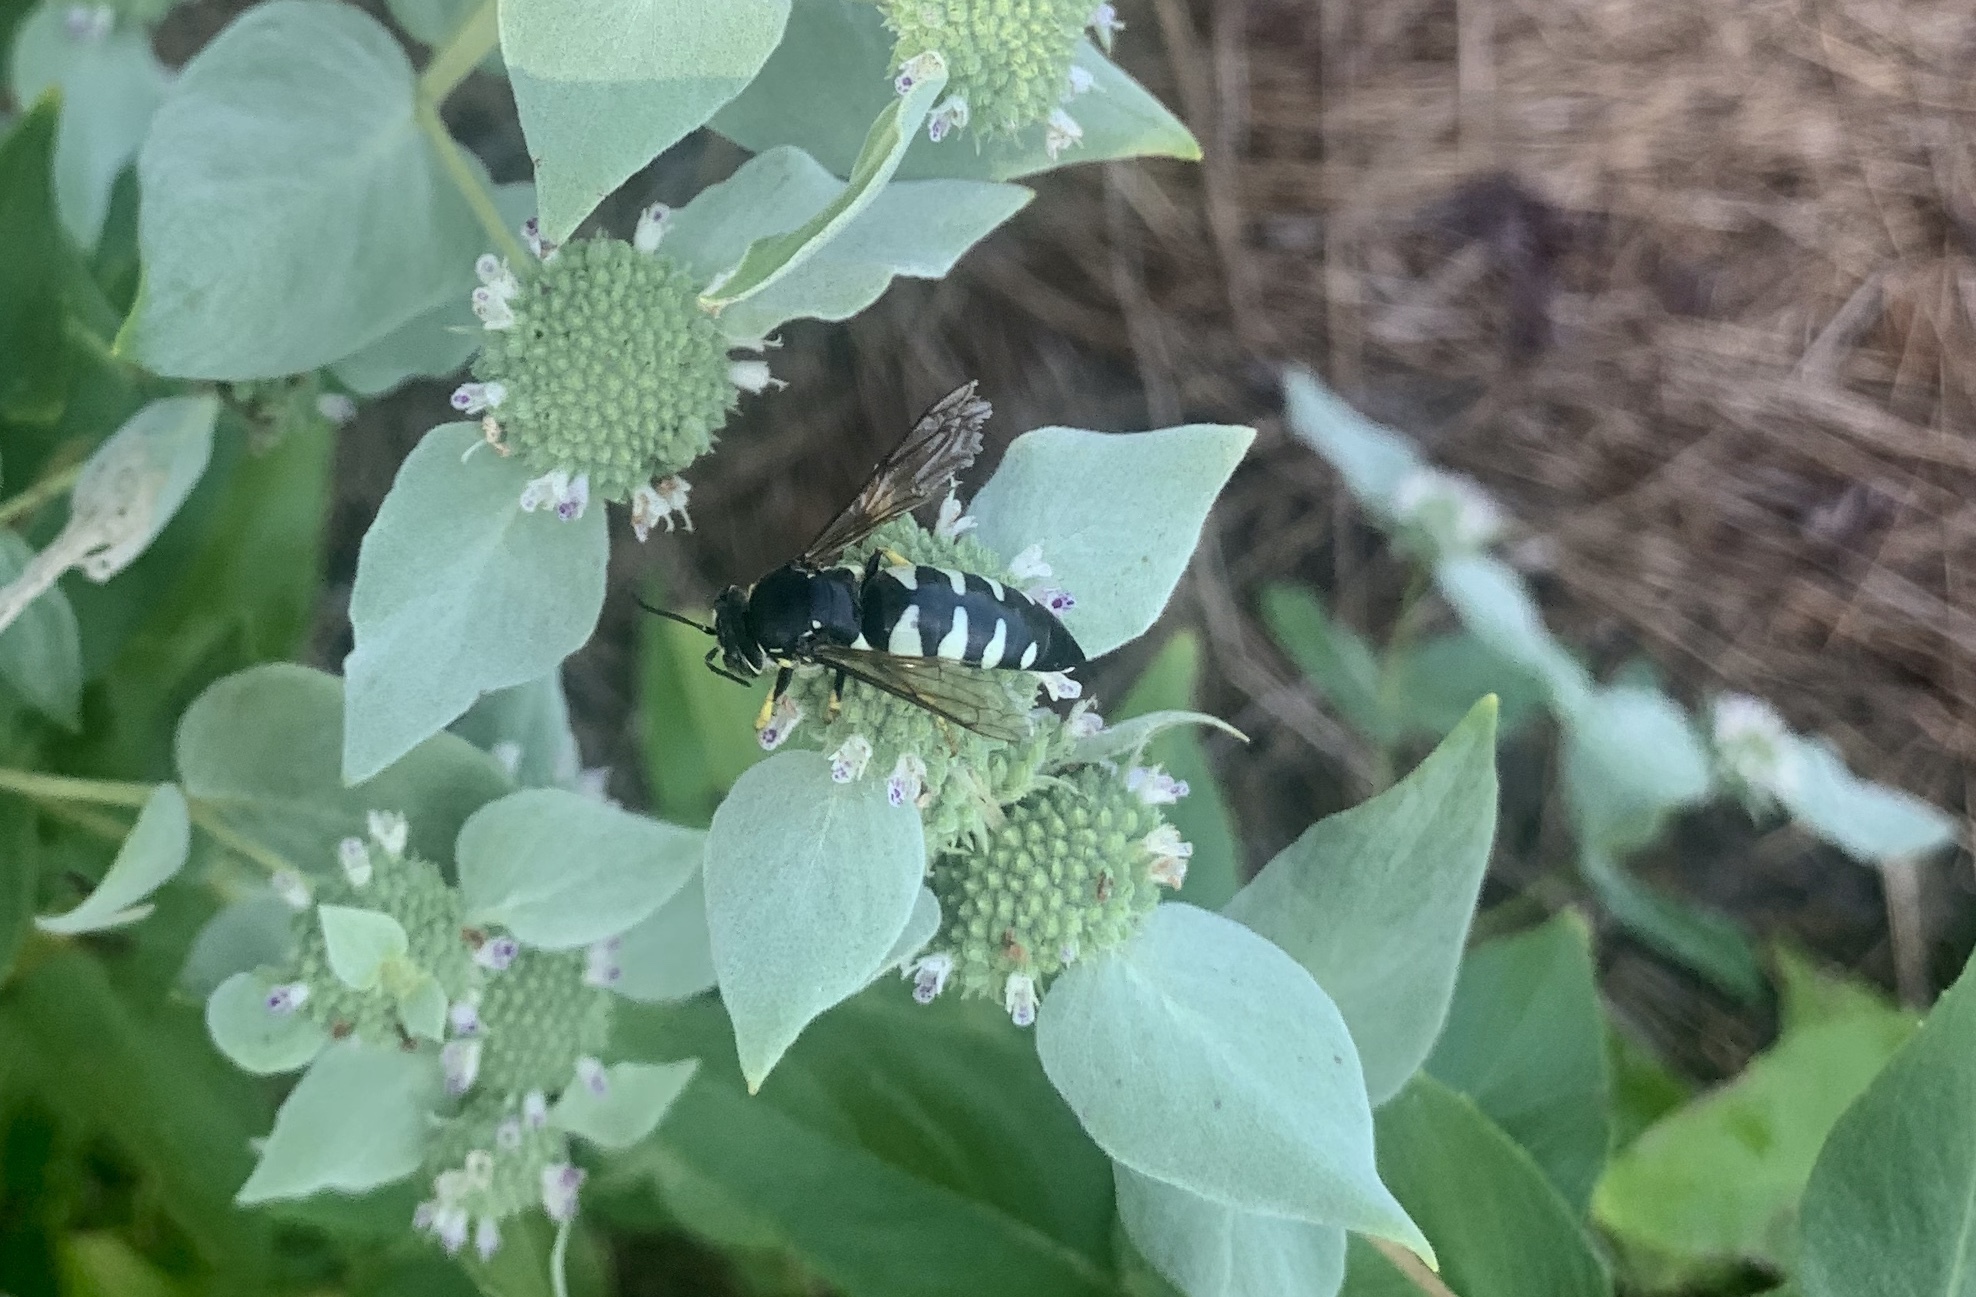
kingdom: Animalia
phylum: Arthropoda
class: Insecta
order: Hymenoptera
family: Crabronidae
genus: Bicyrtes
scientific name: Bicyrtes quadrifasciatus
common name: Four-banded stink bug hunter wasp
